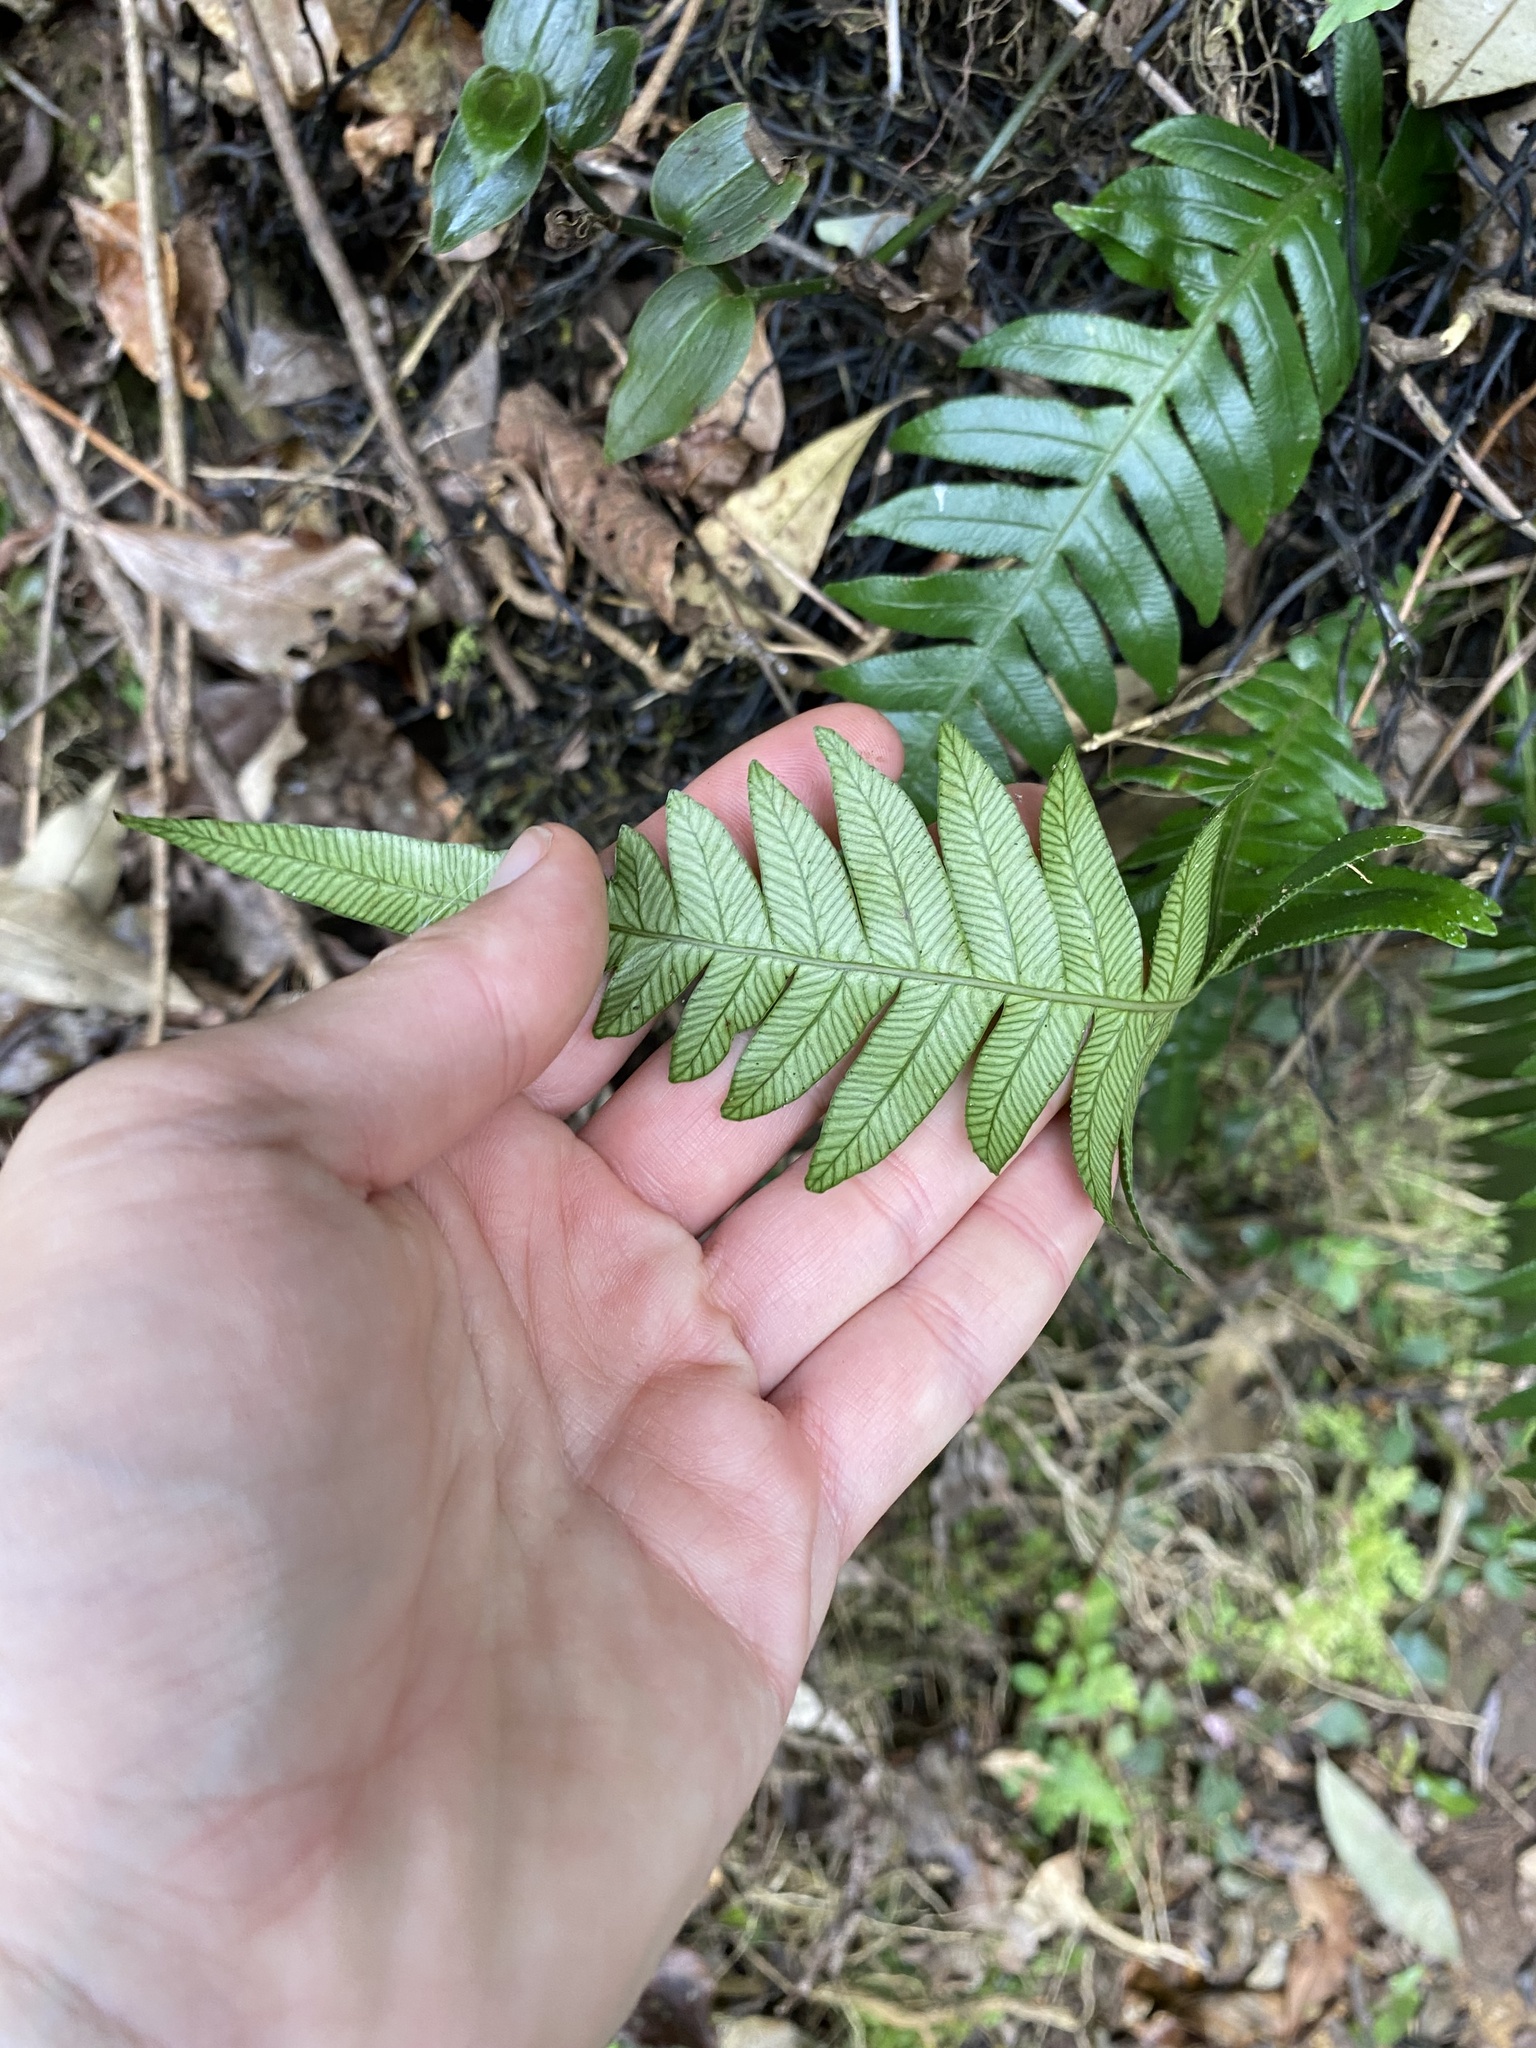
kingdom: Plantae
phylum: Tracheophyta
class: Polypodiopsida
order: Polypodiales
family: Blechnaceae
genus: Lomaridium
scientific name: Lomaridium attenuatum
